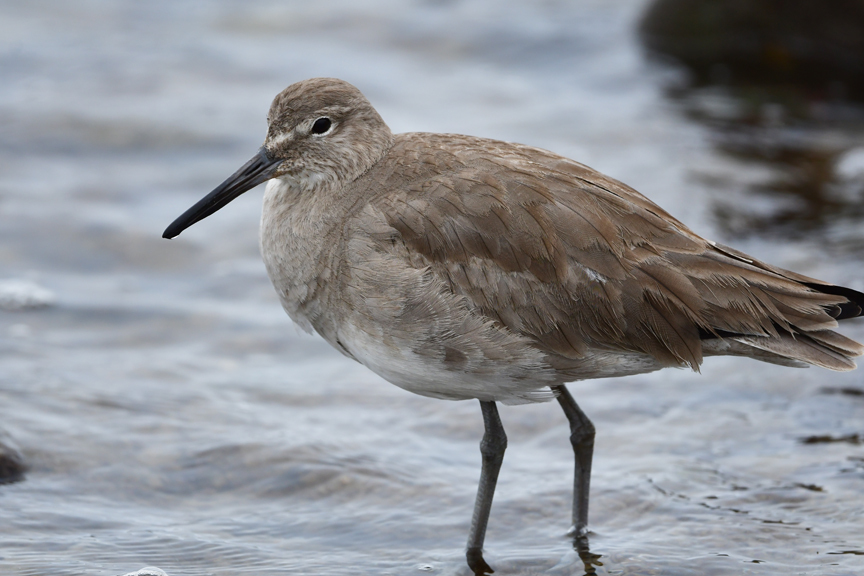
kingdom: Animalia
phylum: Chordata
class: Aves
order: Charadriiformes
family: Scolopacidae
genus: Tringa
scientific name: Tringa semipalmata
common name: Willet
